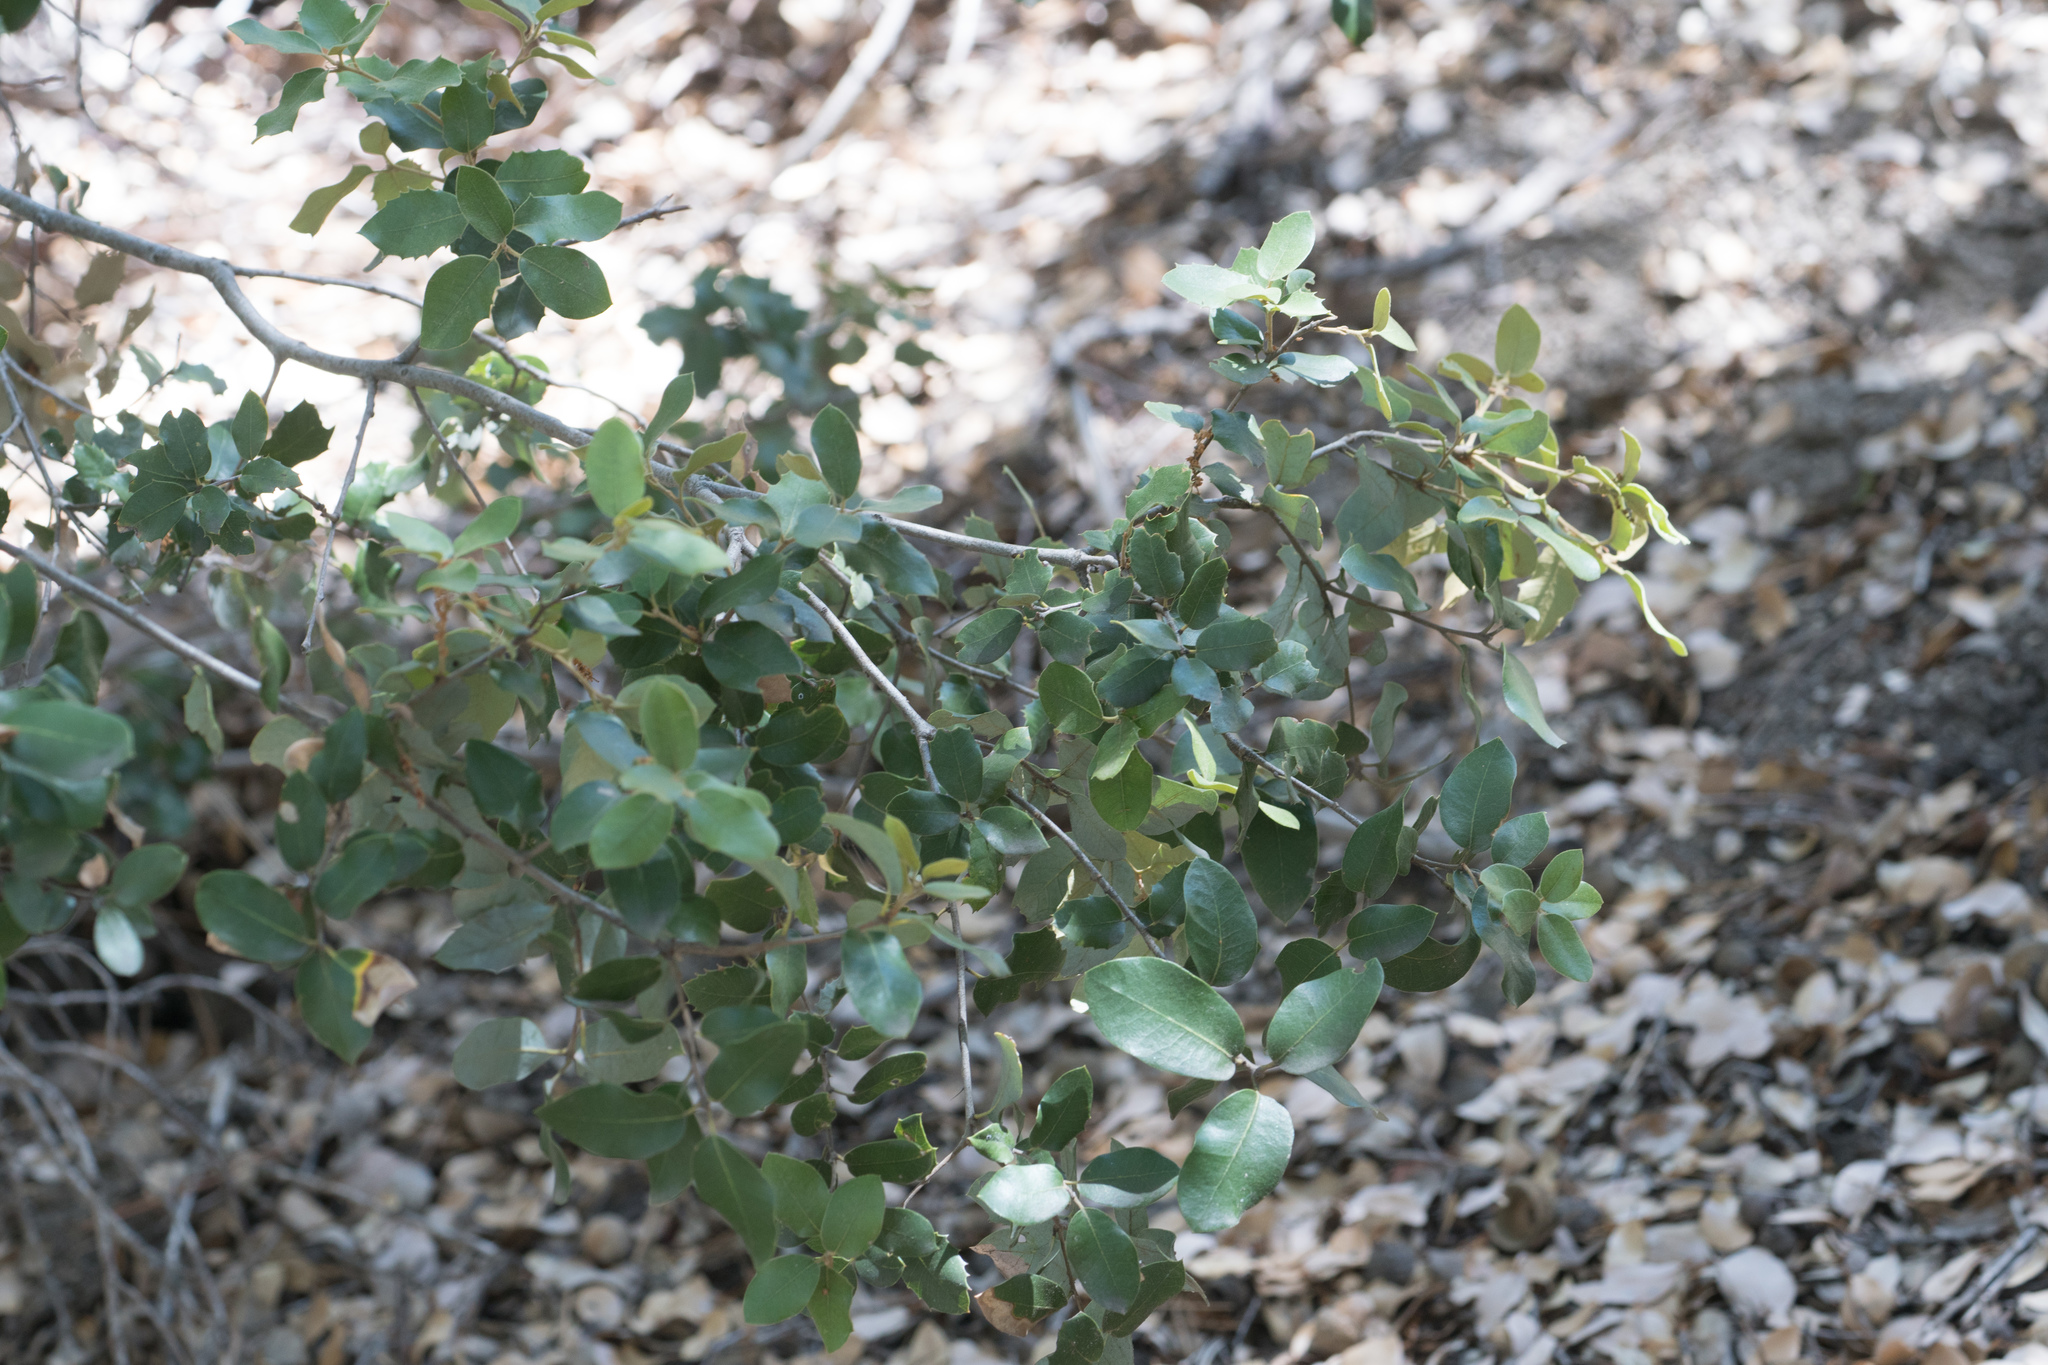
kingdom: Plantae
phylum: Tracheophyta
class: Magnoliopsida
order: Fagales
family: Fagaceae
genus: Quercus
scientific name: Quercus chrysolepis
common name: Canyon live oak
